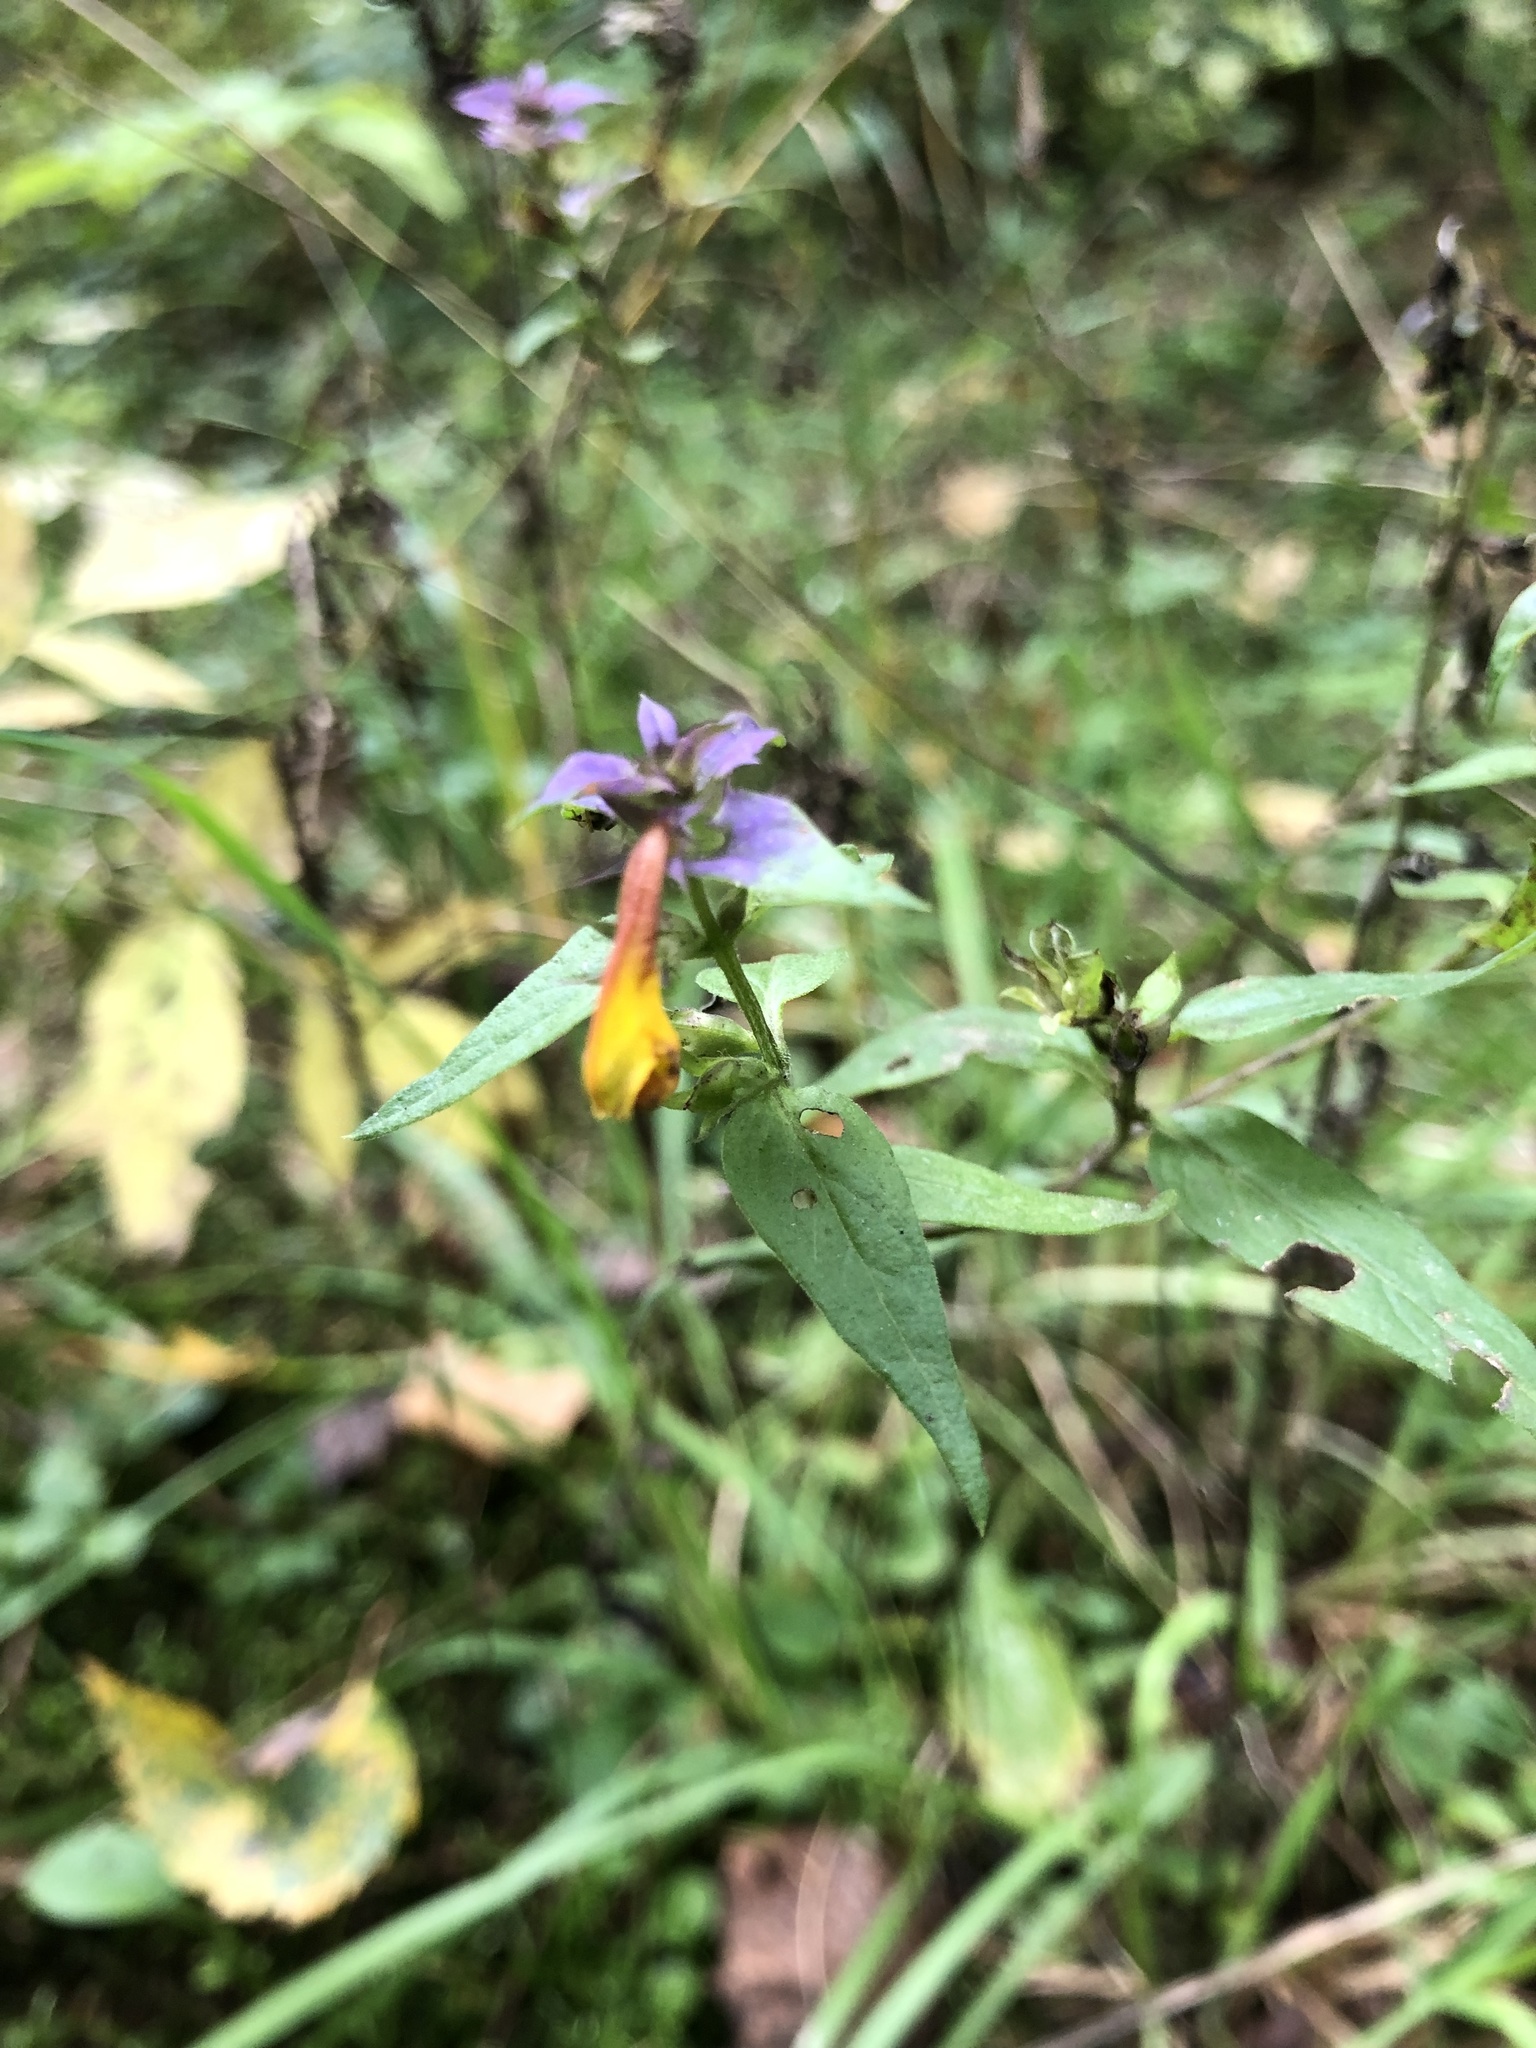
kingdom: Plantae
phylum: Tracheophyta
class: Magnoliopsida
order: Lamiales
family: Orobanchaceae
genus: Melampyrum
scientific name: Melampyrum nemorosum
